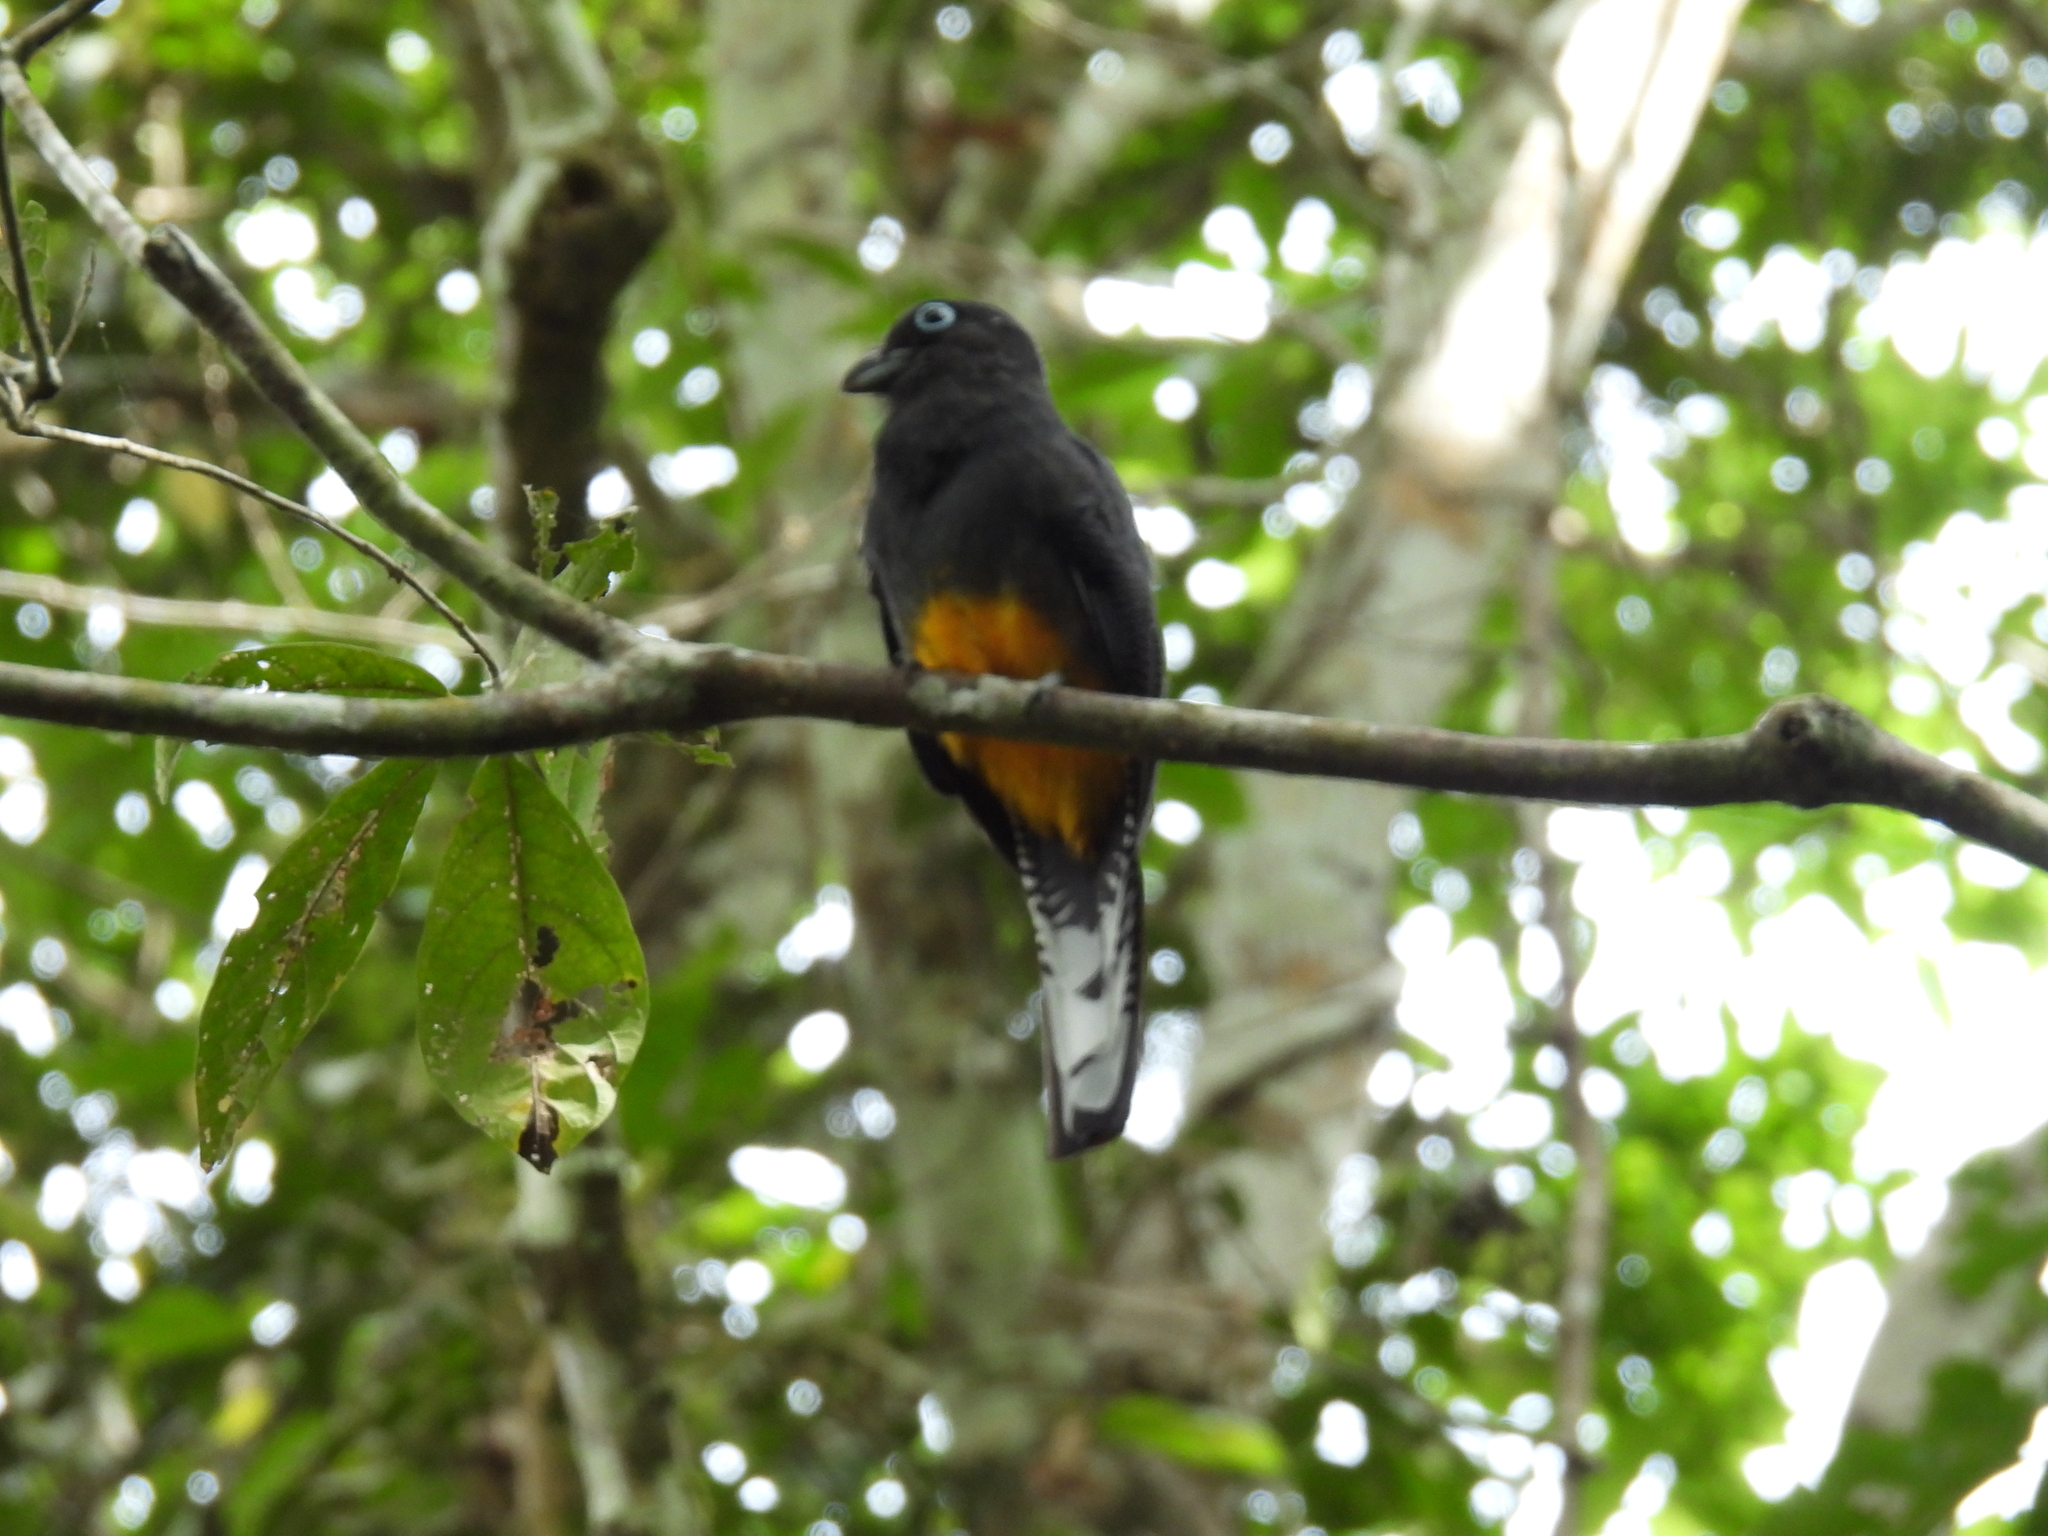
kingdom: Animalia
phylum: Chordata
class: Aves
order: Trogoniformes
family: Trogonidae
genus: Trogon
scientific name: Trogon chionurus
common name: White-tailed trogon
